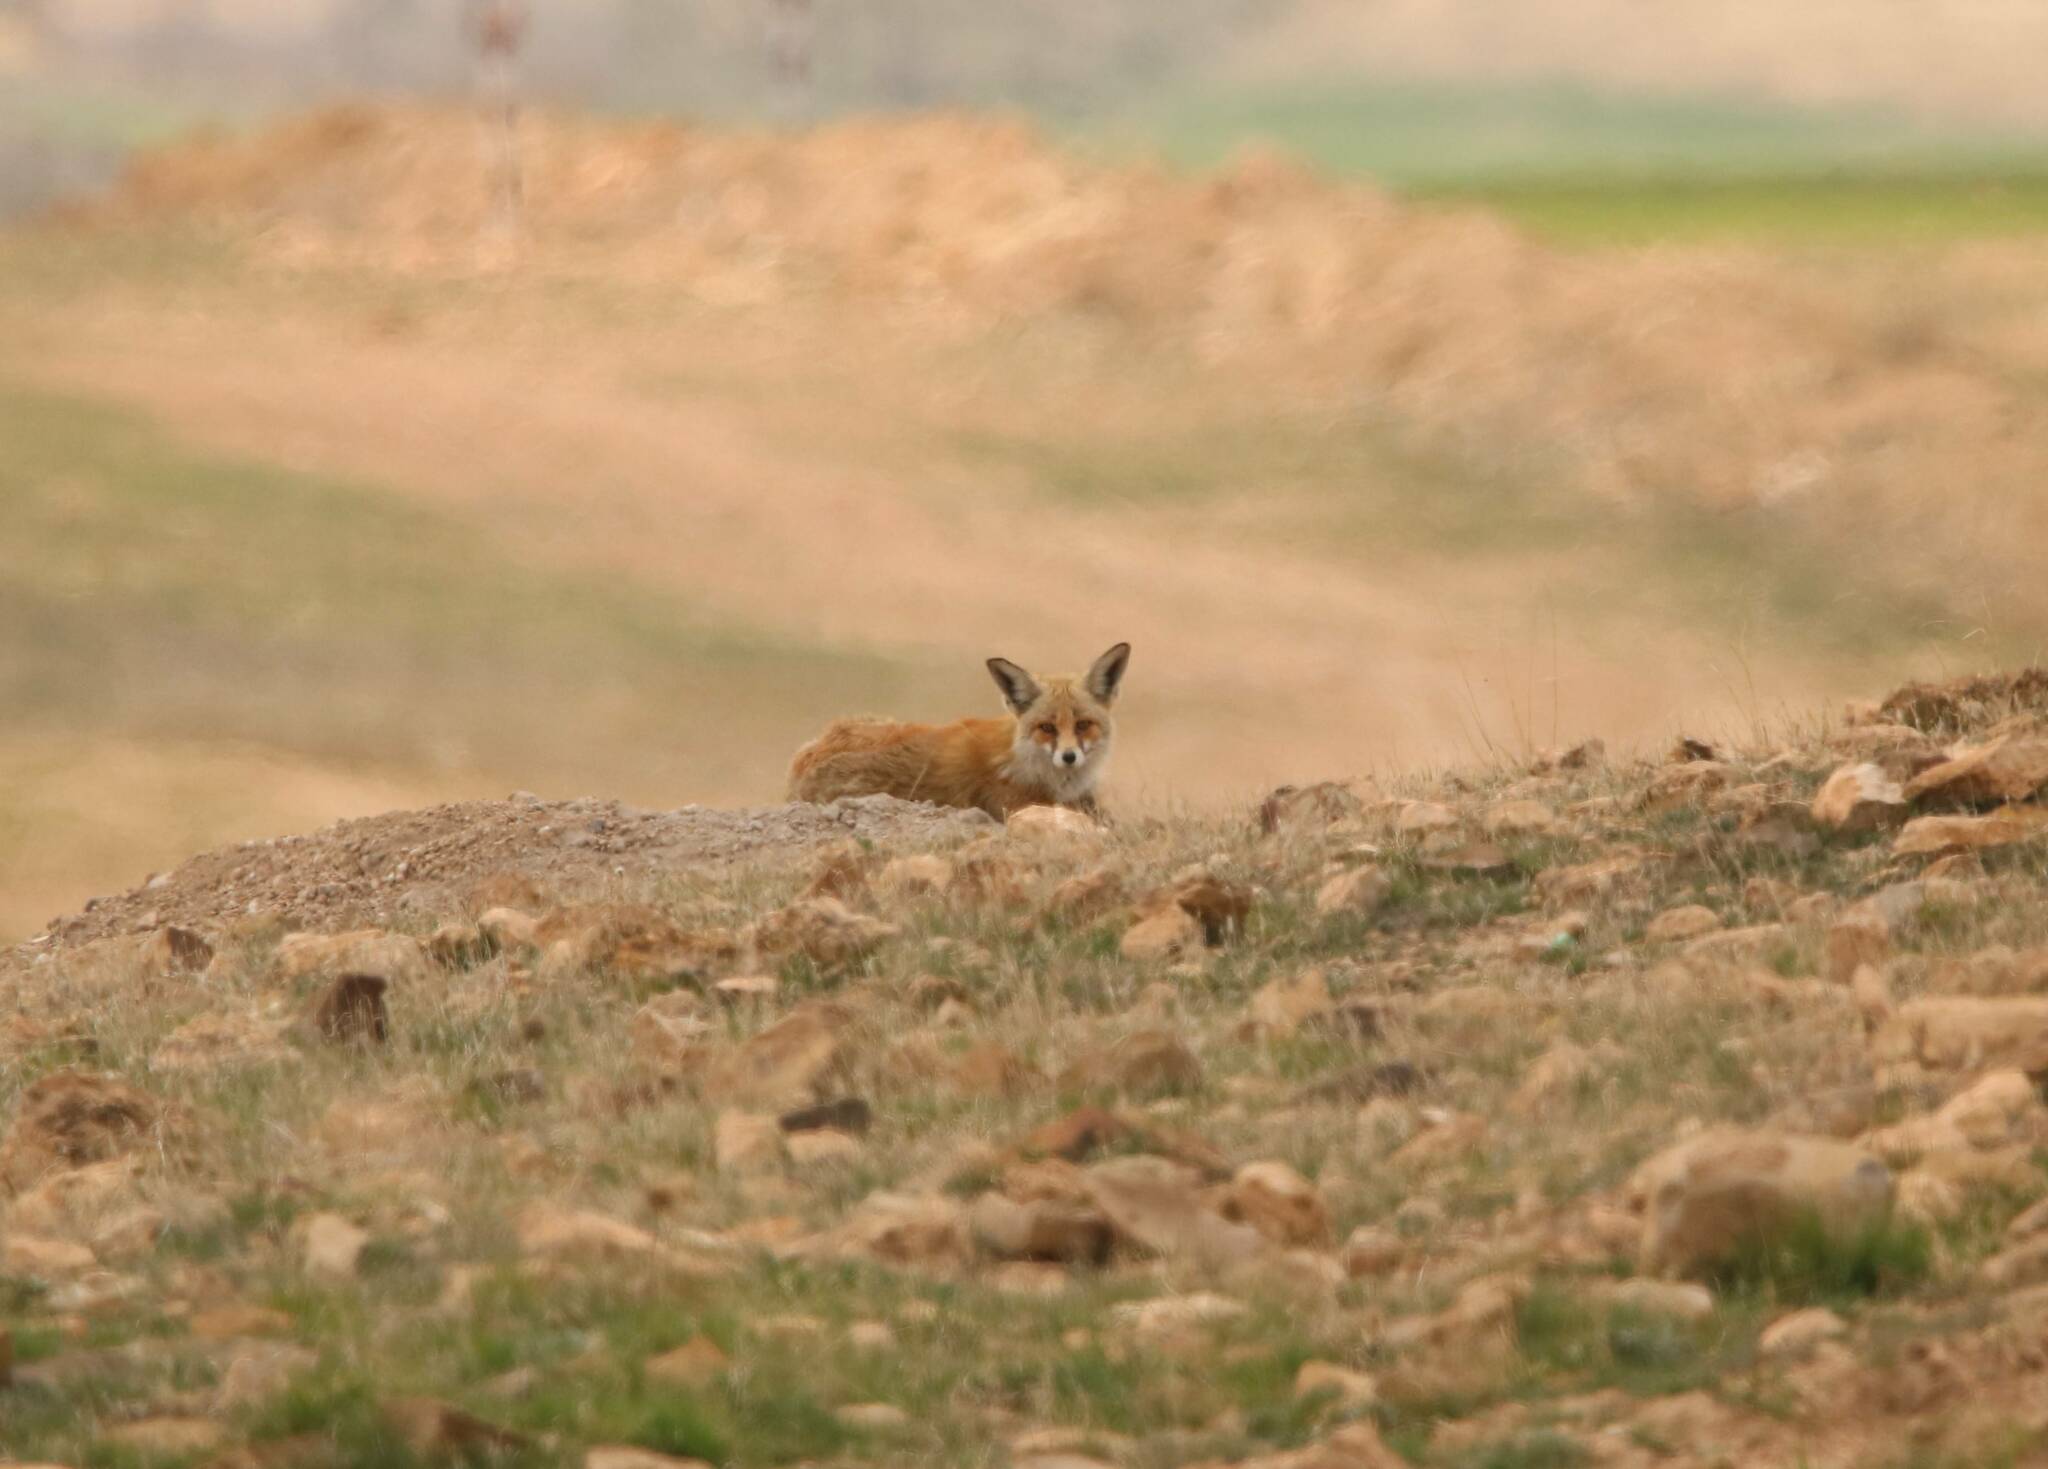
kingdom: Animalia
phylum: Chordata
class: Mammalia
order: Carnivora
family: Canidae
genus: Vulpes
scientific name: Vulpes vulpes
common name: Red fox
